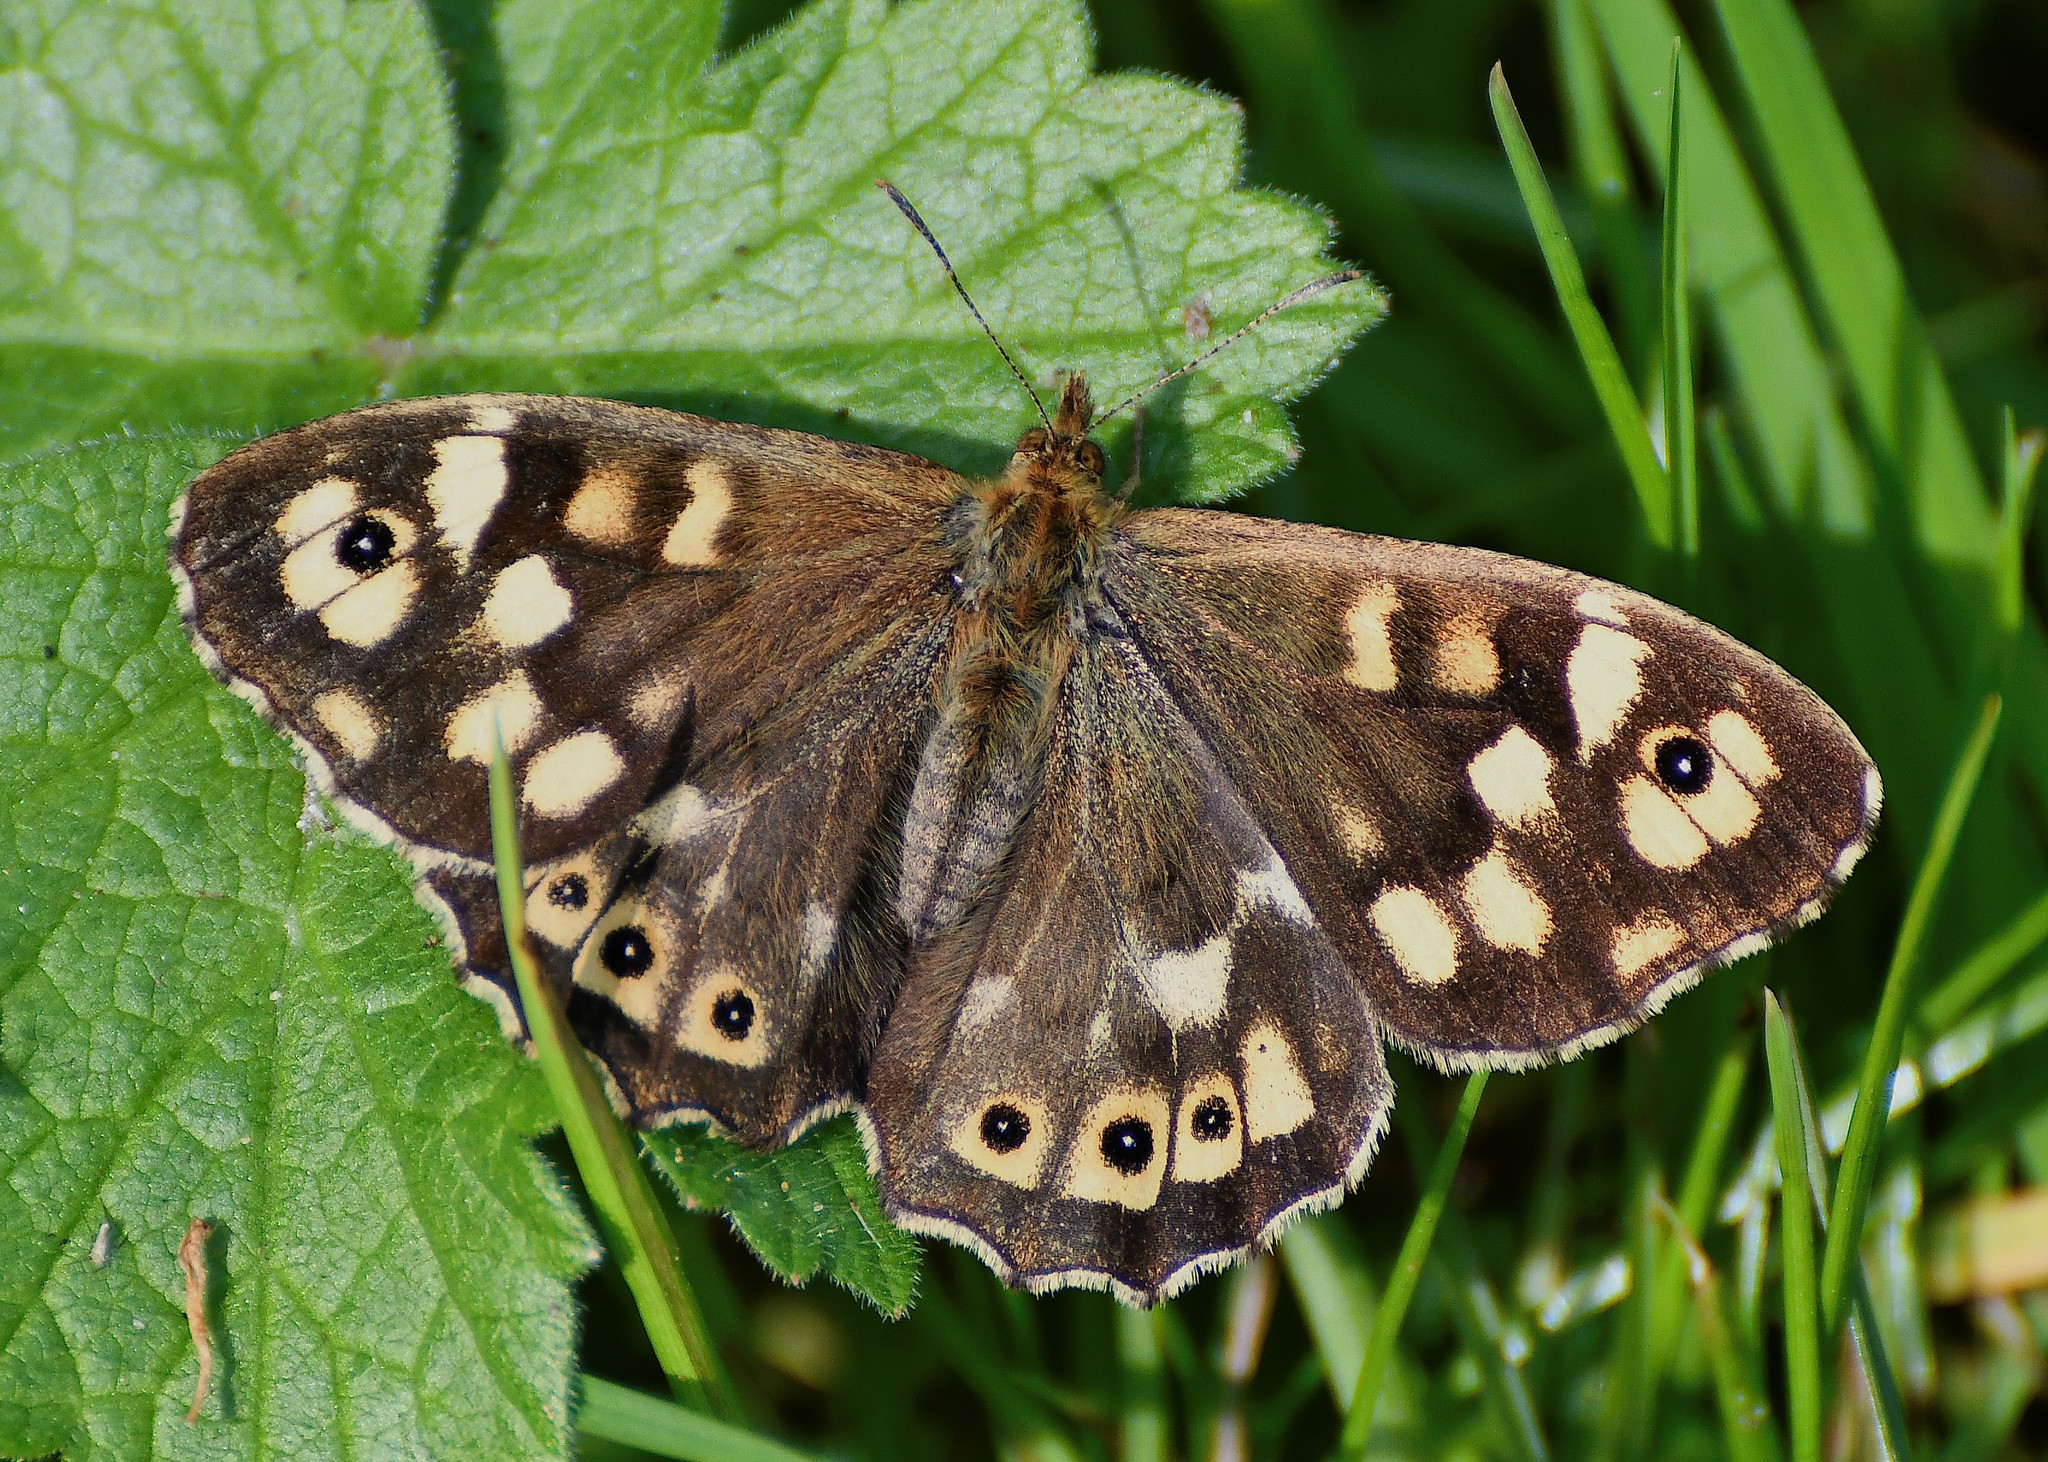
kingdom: Animalia
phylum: Arthropoda
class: Insecta
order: Lepidoptera
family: Nymphalidae
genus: Pararge
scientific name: Pararge aegeria
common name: Speckled wood
